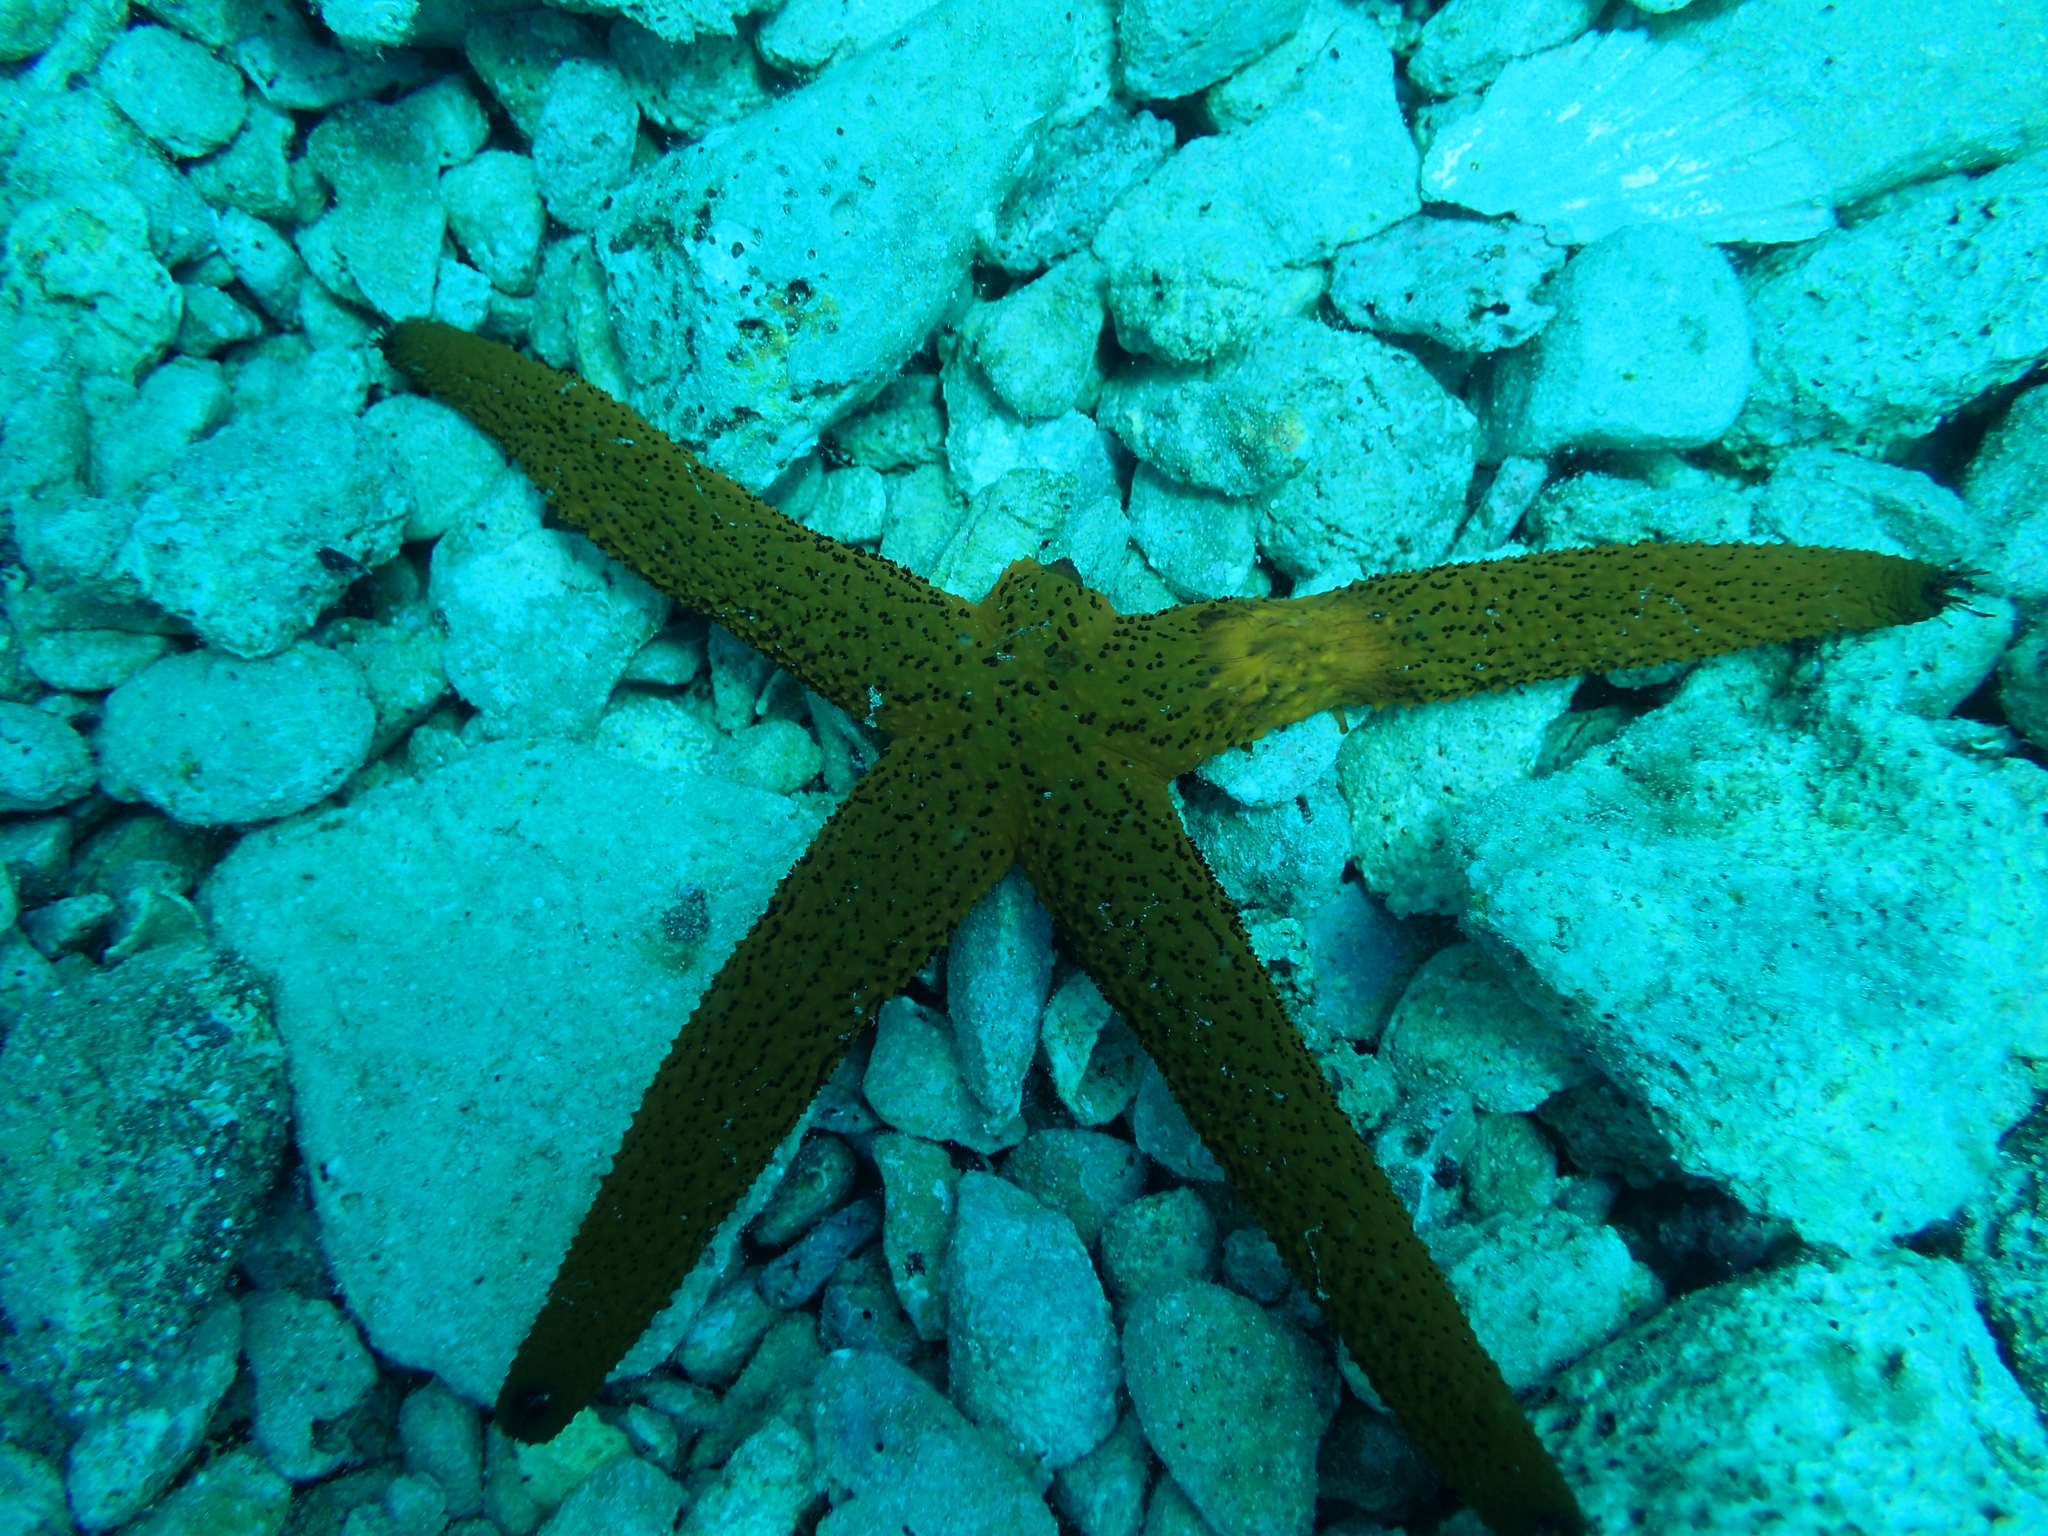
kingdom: Animalia
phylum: Echinodermata
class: Asteroidea
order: Spinulosida
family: Echinasteridae
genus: Echinaster
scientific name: Echinaster sepositus
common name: Red starfish
